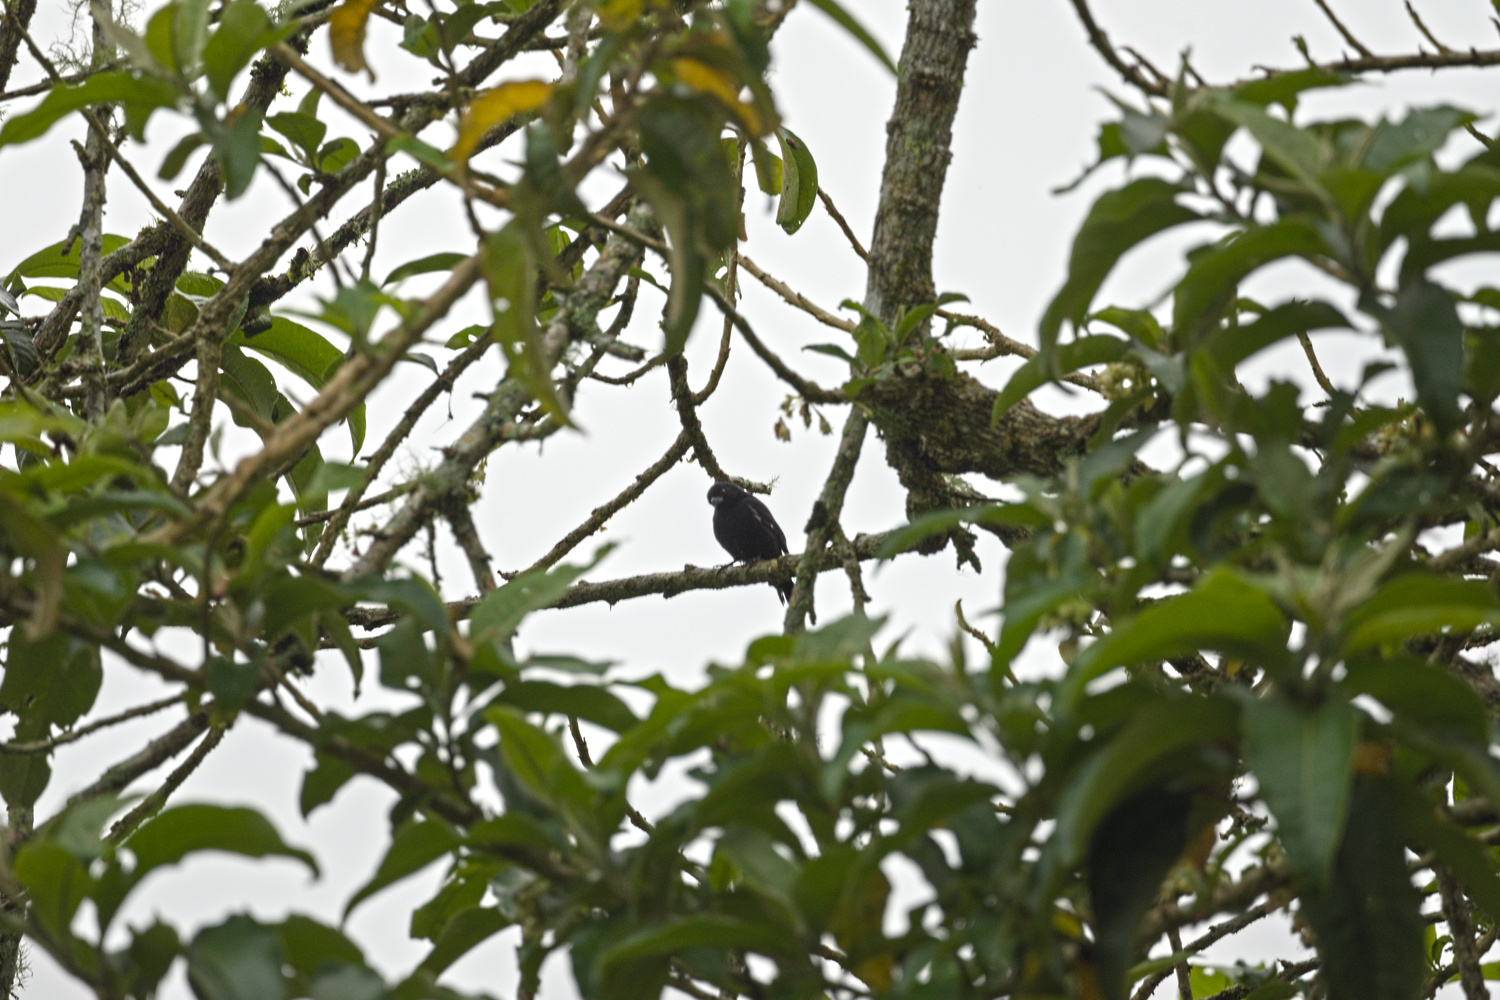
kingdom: Animalia
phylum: Chordata
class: Aves
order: Passeriformes
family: Thraupidae
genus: Sporophila
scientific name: Sporophila corvina
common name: Variable seedeater
